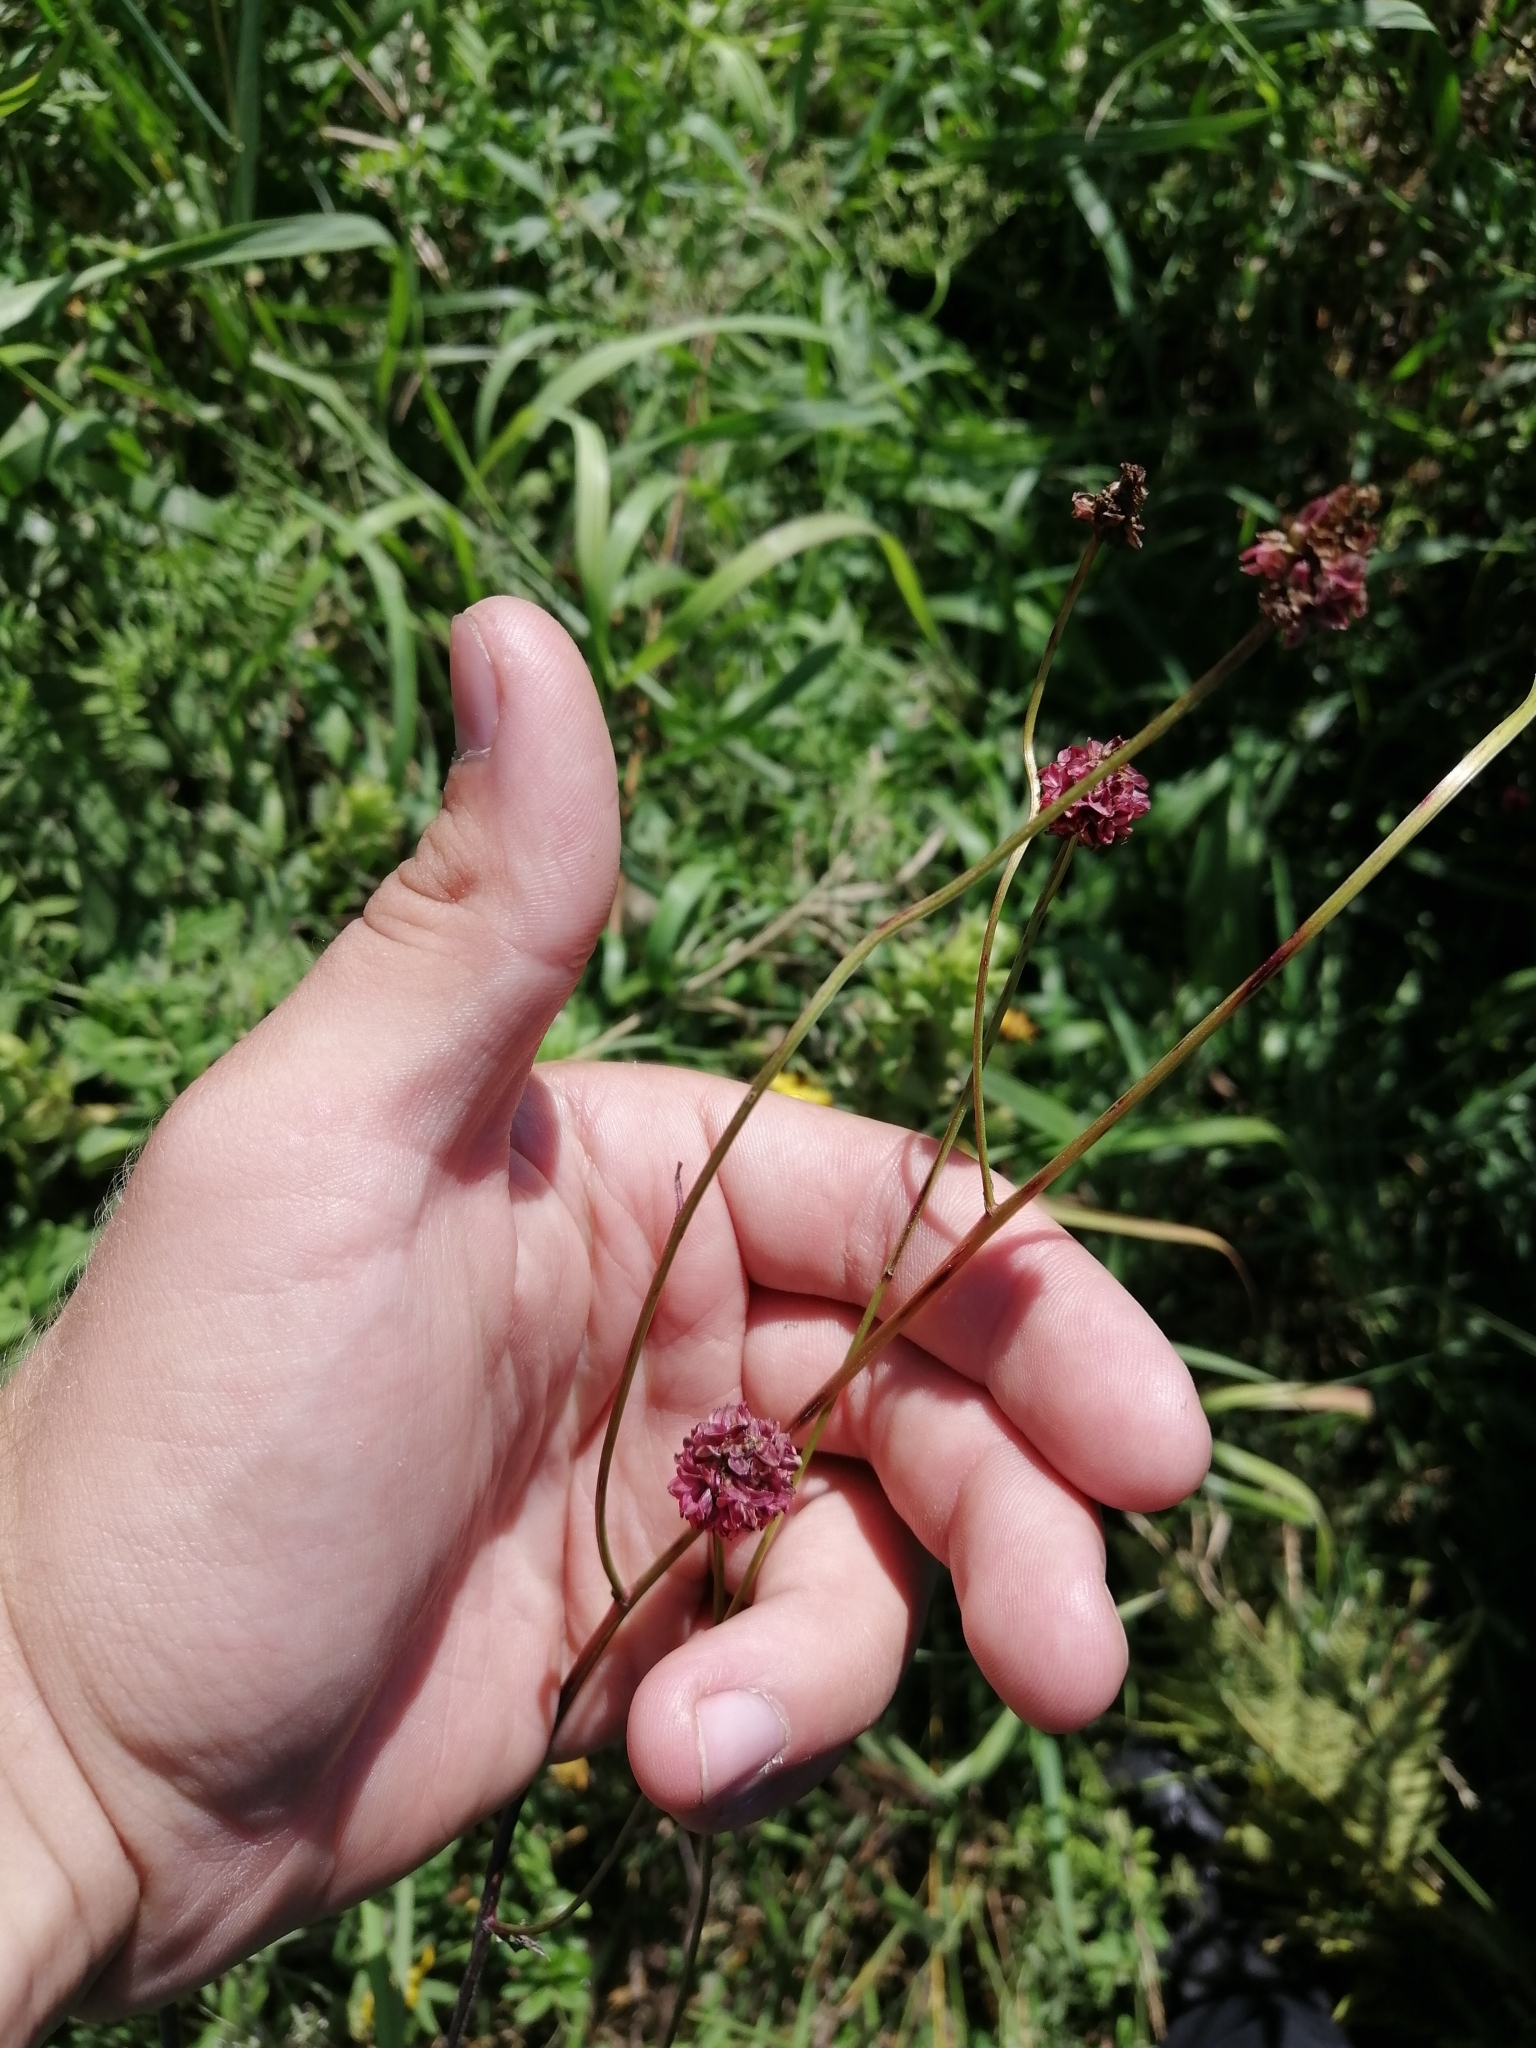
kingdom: Plantae
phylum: Tracheophyta
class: Magnoliopsida
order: Rosales
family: Rosaceae
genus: Sanguisorba
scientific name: Sanguisorba officinalis
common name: Great burnet
